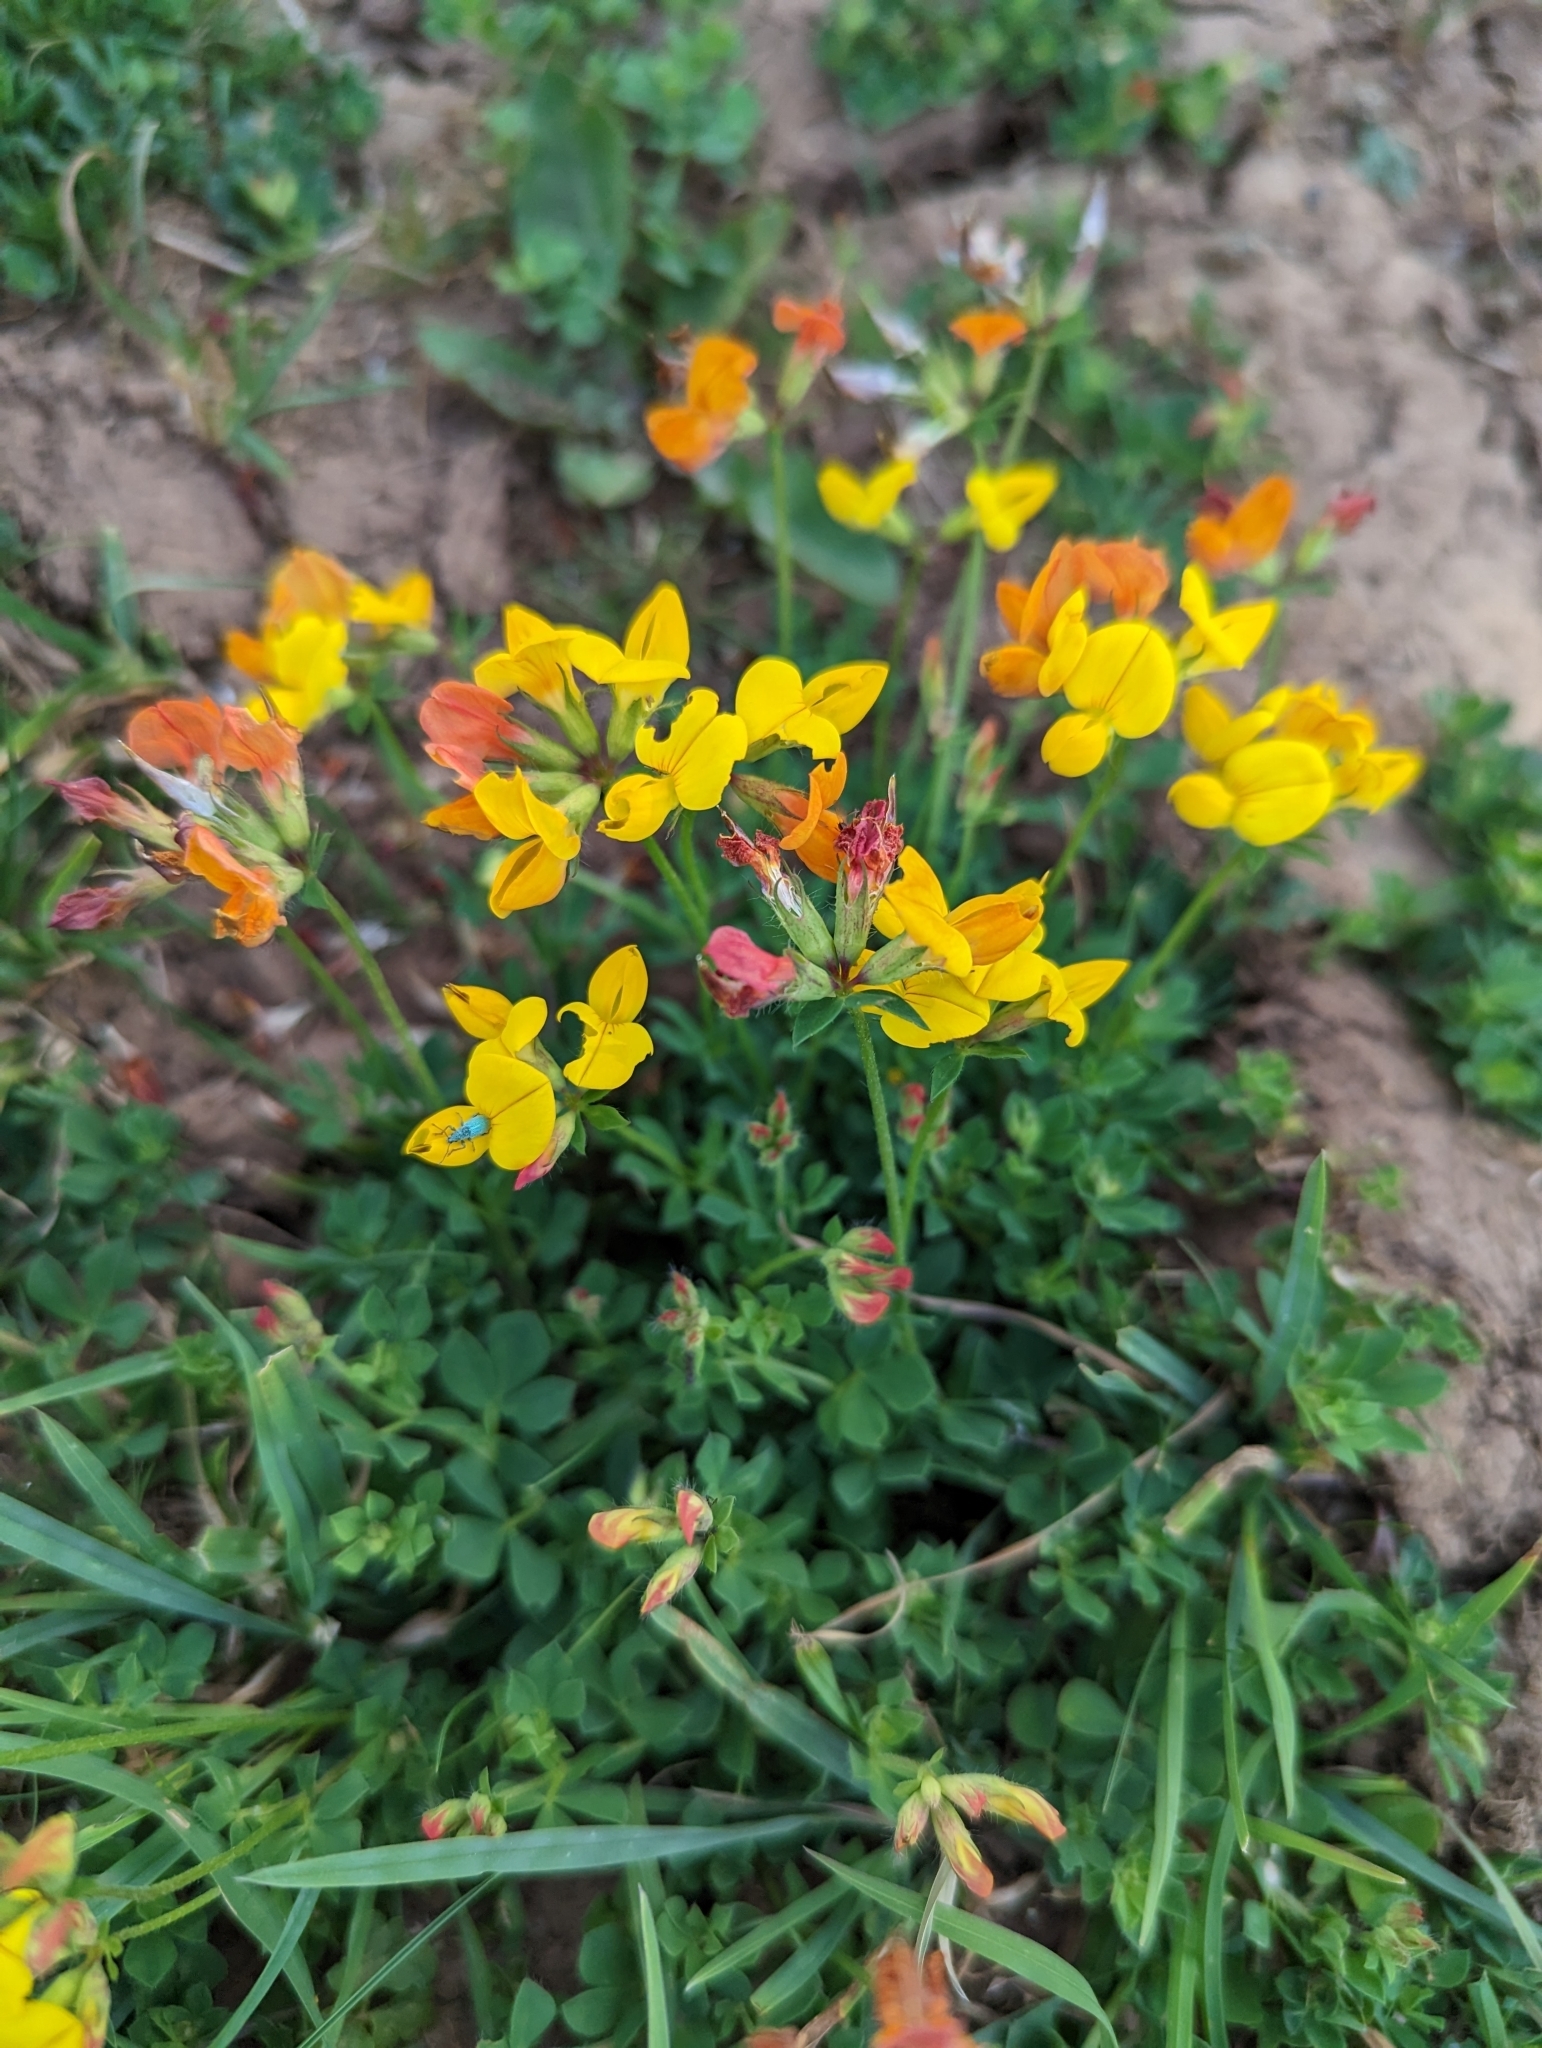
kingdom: Plantae
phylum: Tracheophyta
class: Magnoliopsida
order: Fabales
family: Fabaceae
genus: Lotus
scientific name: Lotus corniculatus
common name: Common bird's-foot-trefoil
